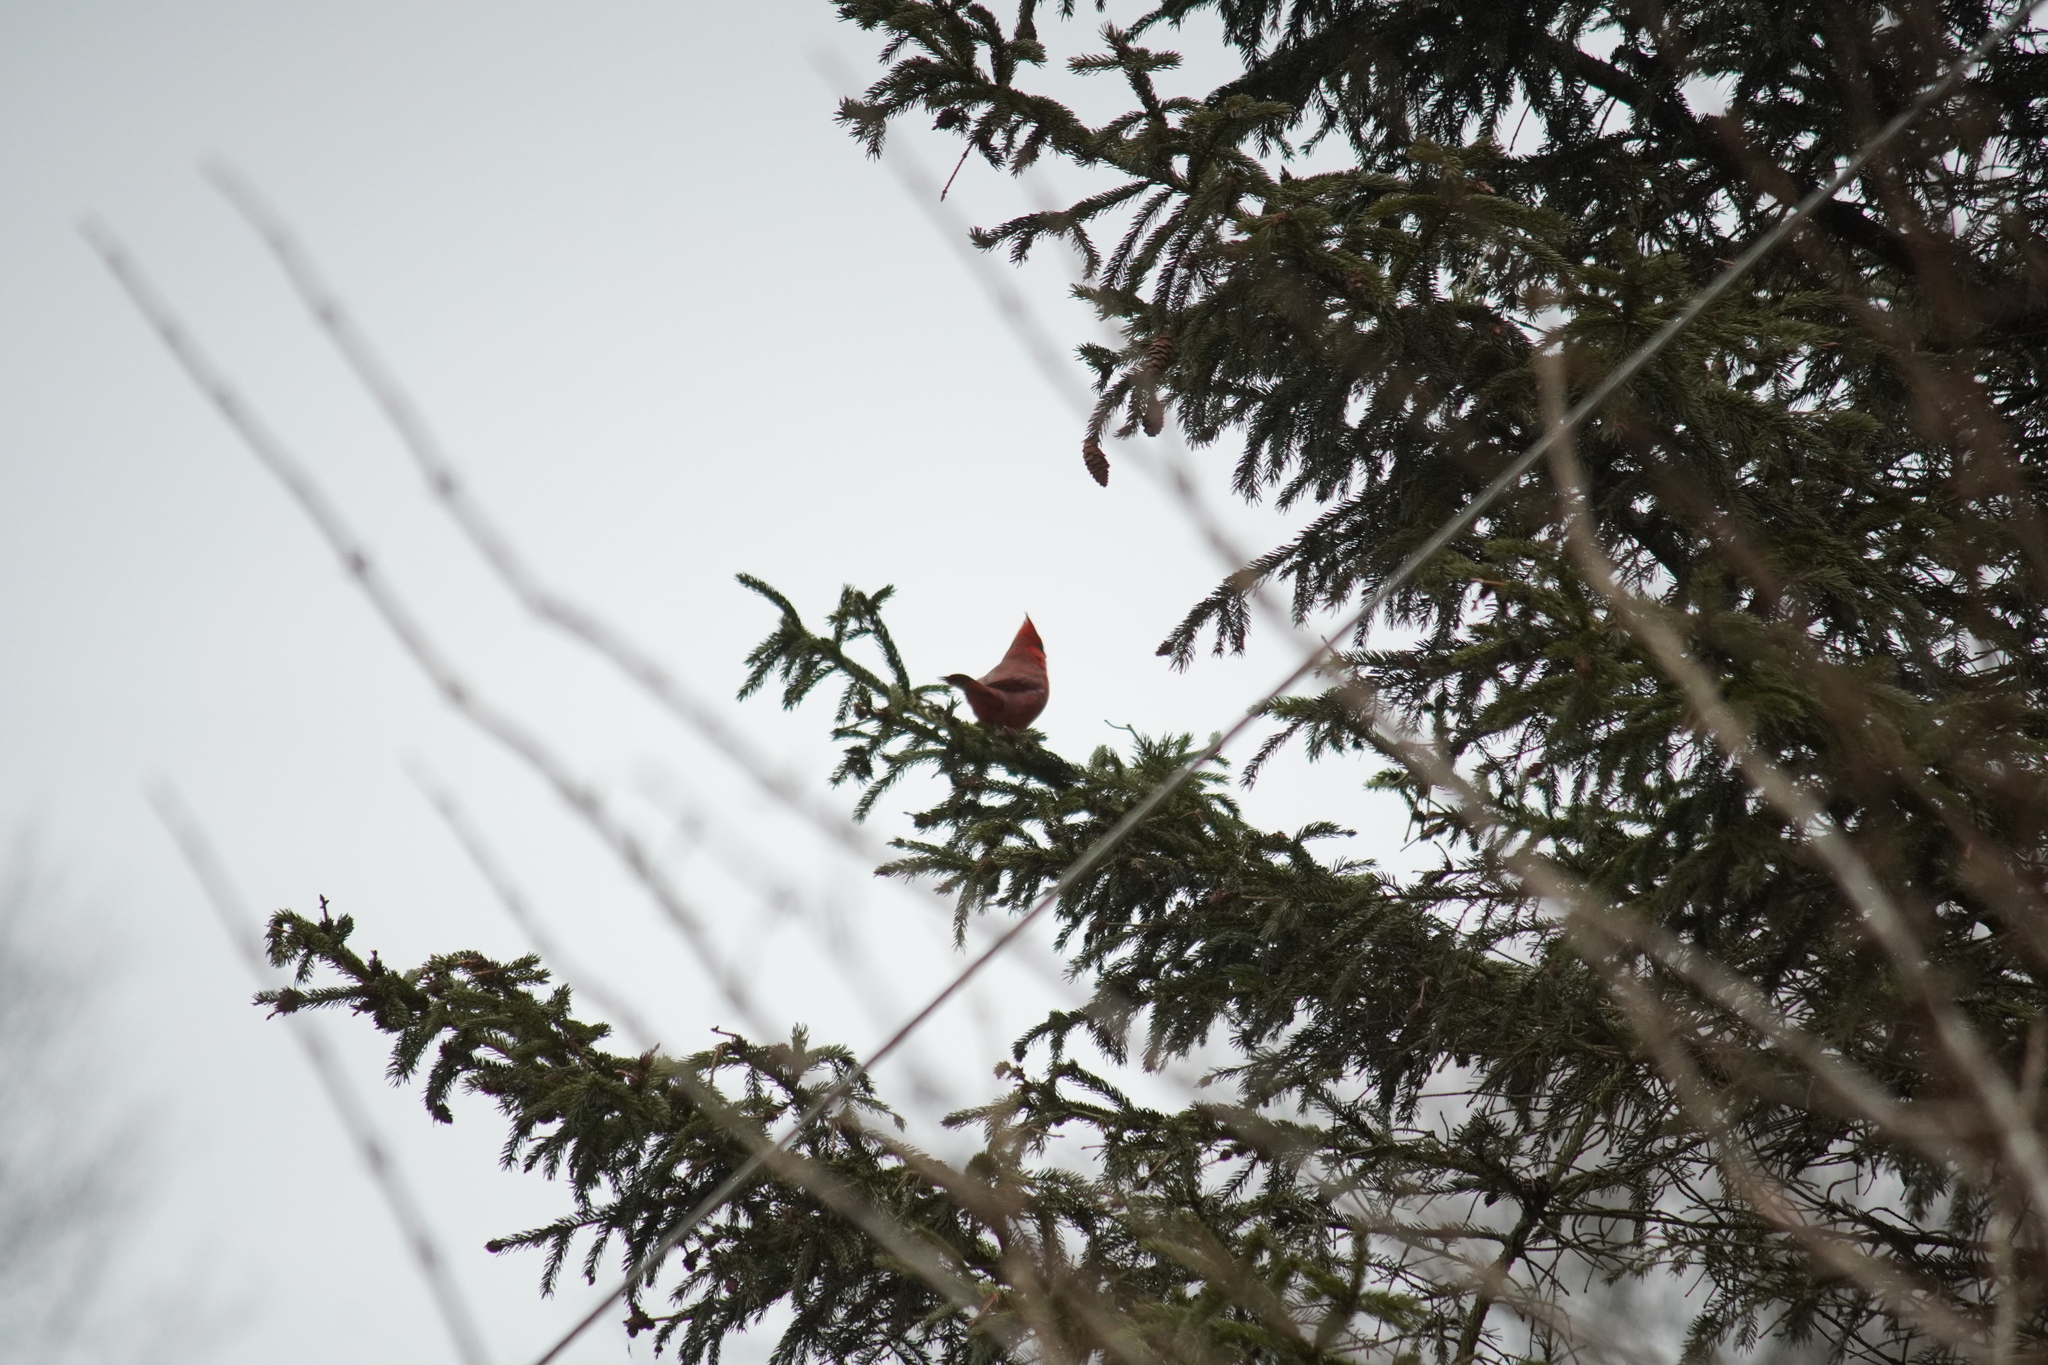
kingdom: Animalia
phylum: Chordata
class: Aves
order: Passeriformes
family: Cardinalidae
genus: Cardinalis
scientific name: Cardinalis cardinalis
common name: Northern cardinal
